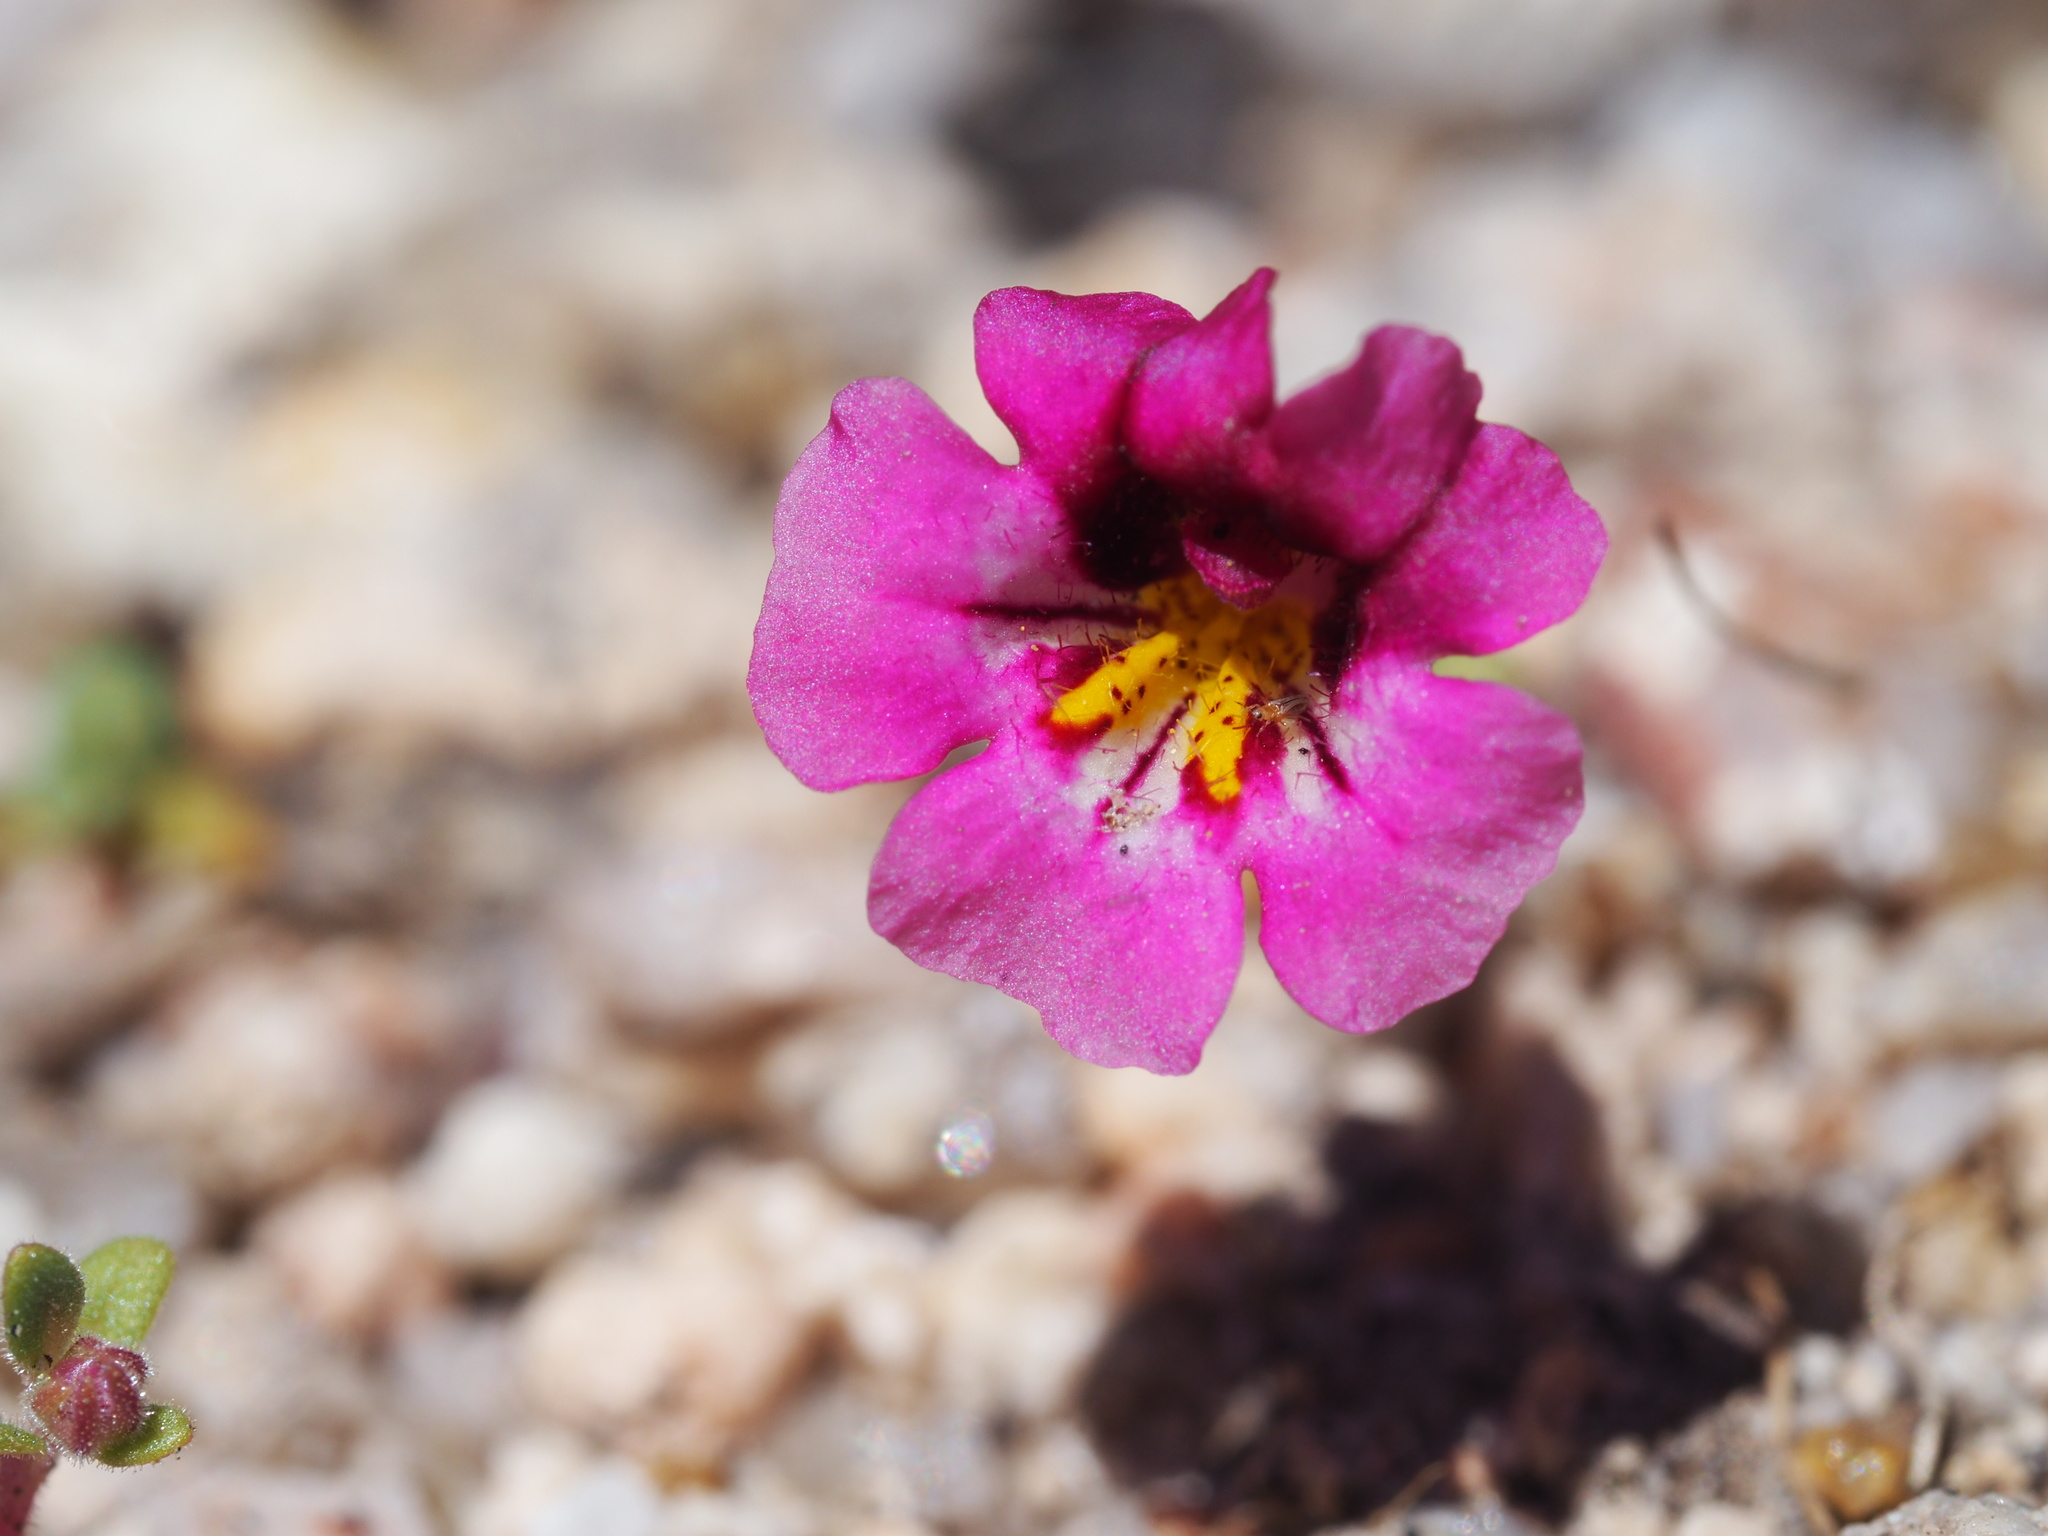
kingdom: Plantae
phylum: Tracheophyta
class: Magnoliopsida
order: Lamiales
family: Phrymaceae
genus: Diplacus
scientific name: Diplacus thompsonii
